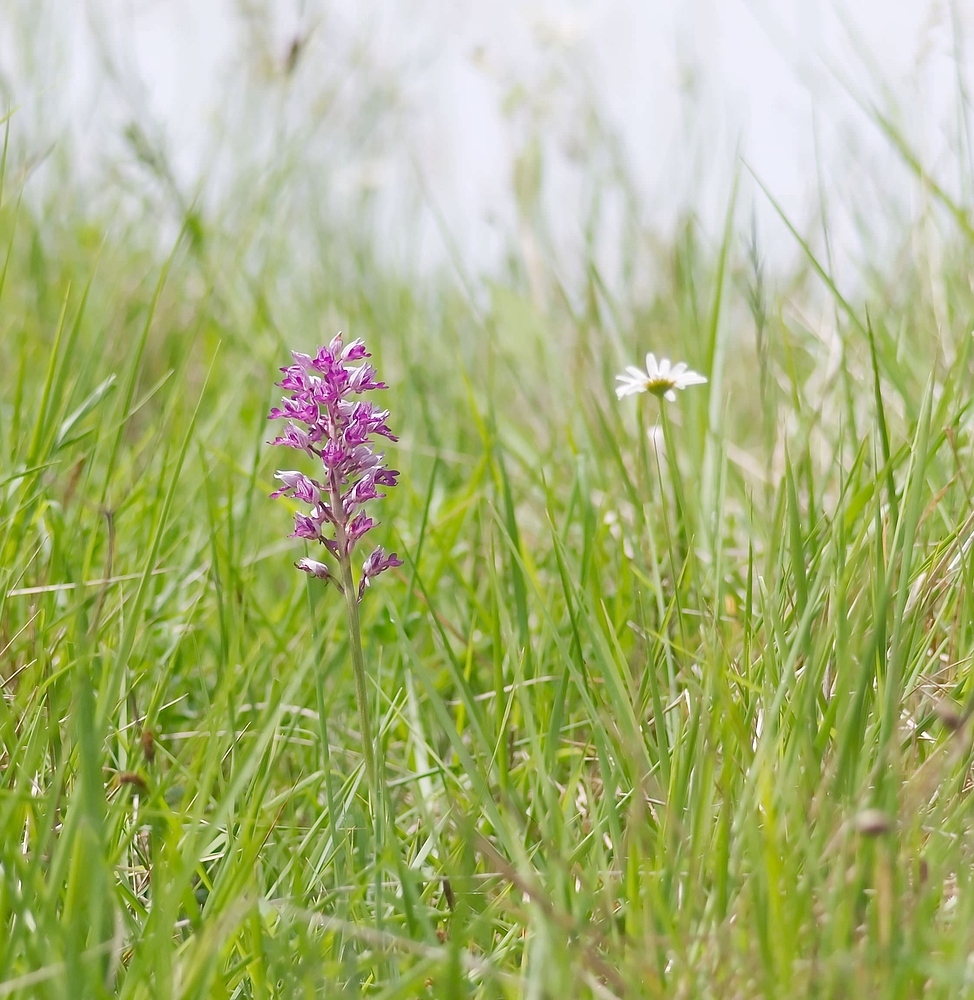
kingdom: Plantae
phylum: Tracheophyta
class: Liliopsida
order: Asparagales
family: Orchidaceae
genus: Orchis
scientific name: Orchis militaris
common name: Military orchid
